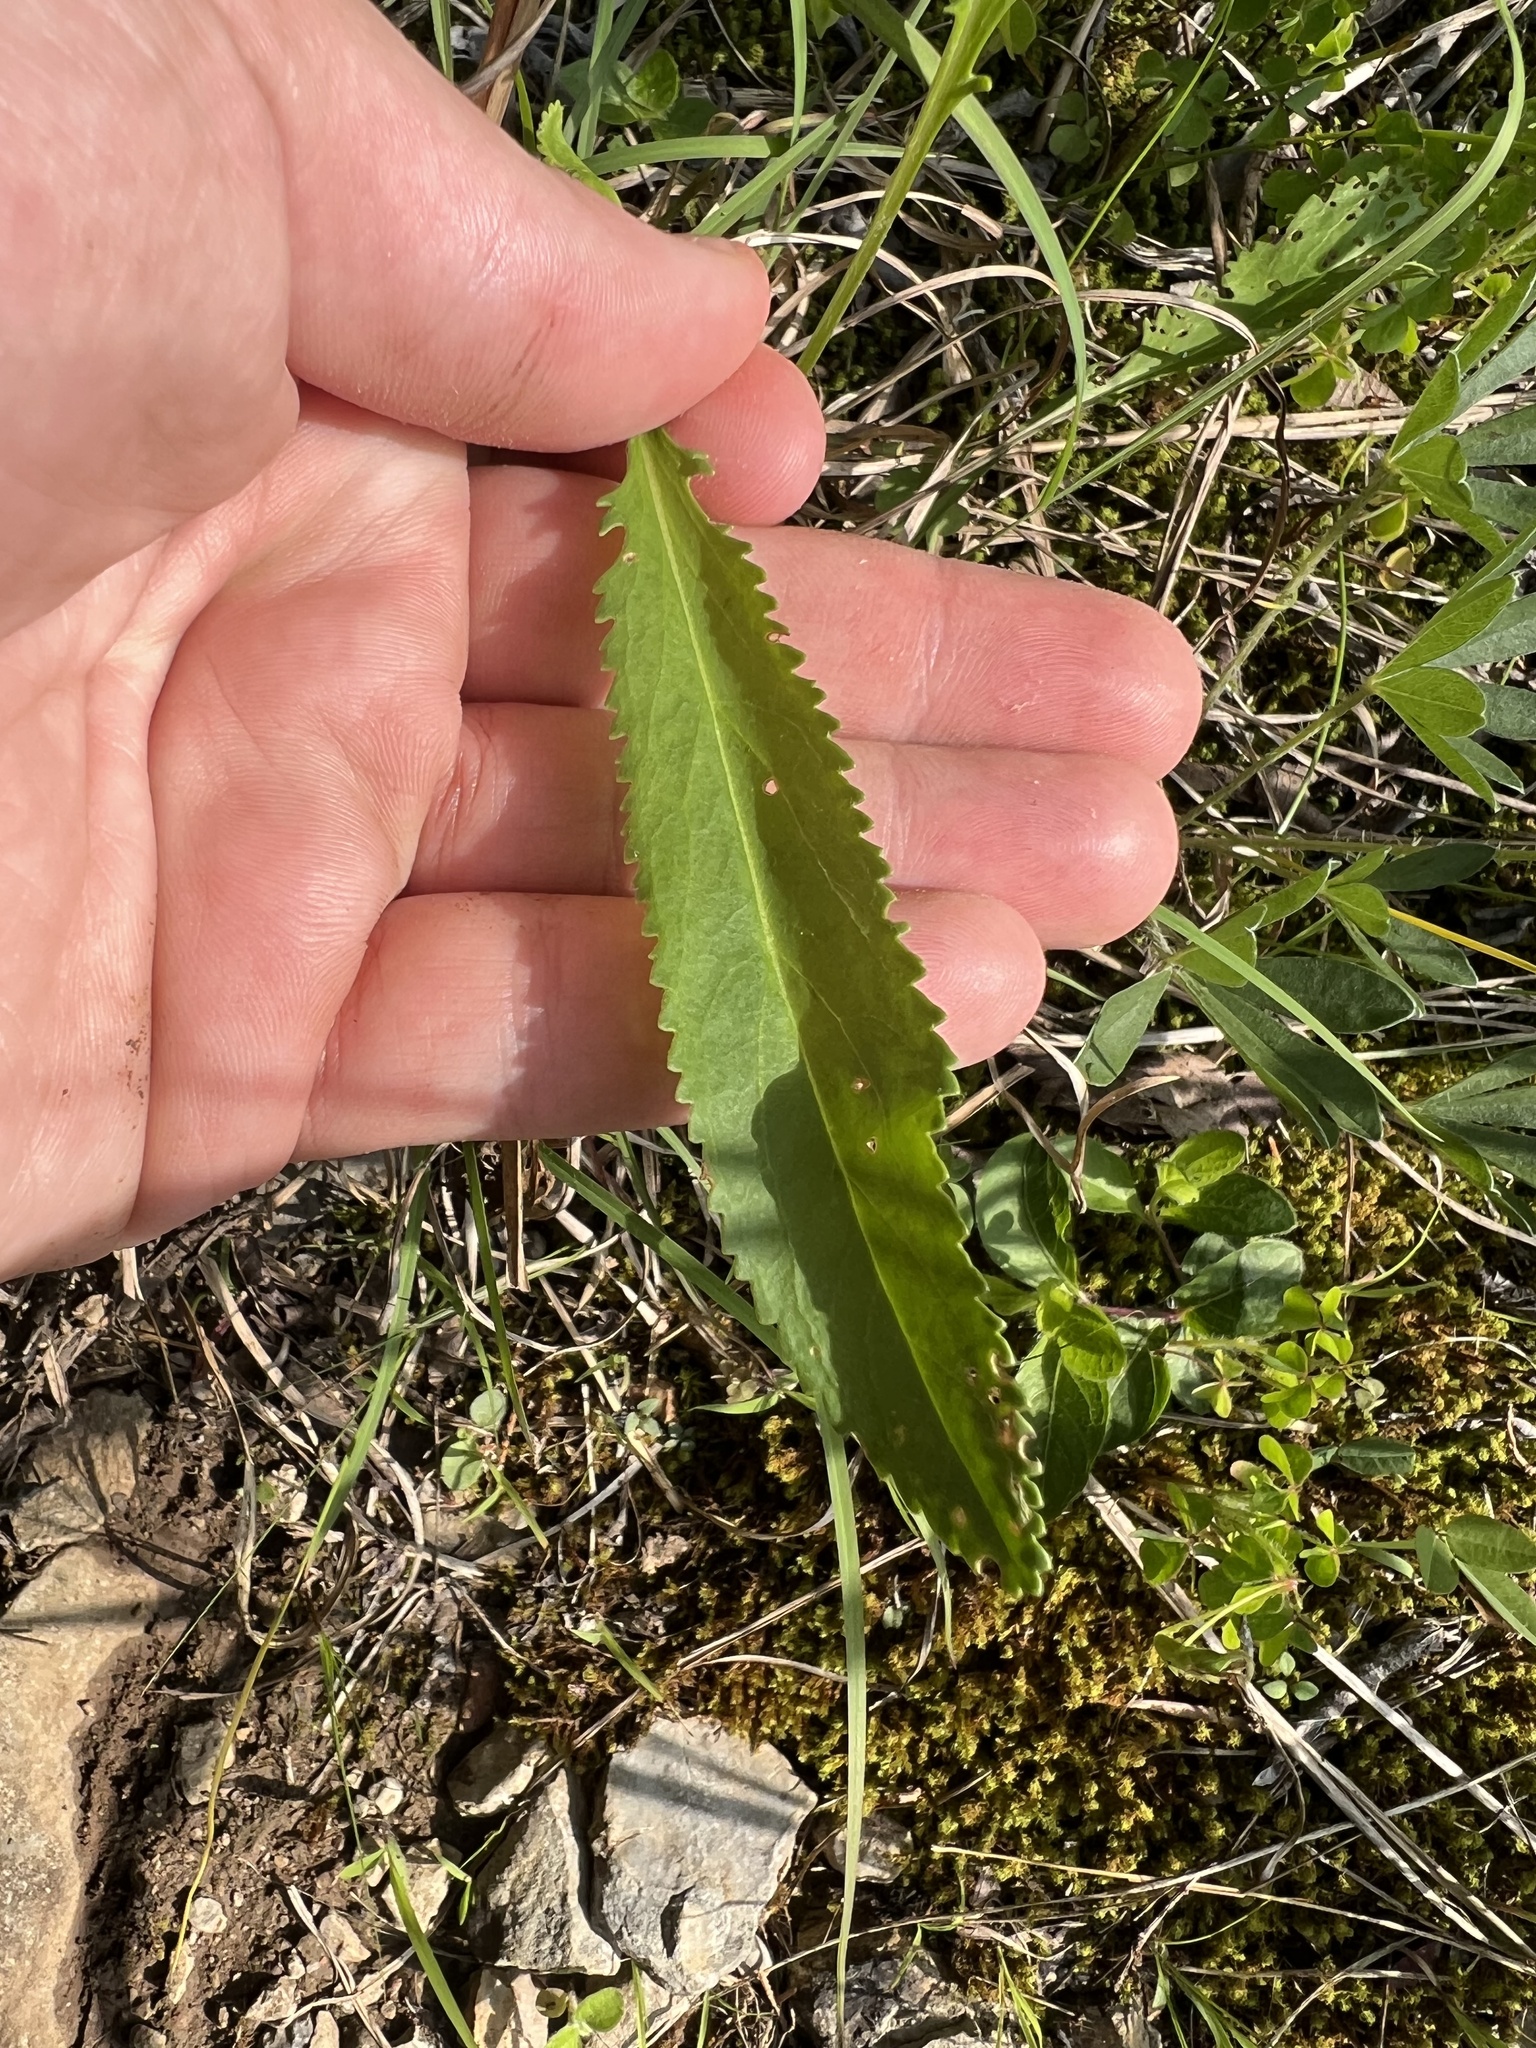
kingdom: Plantae
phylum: Tracheophyta
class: Magnoliopsida
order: Asterales
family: Asteraceae
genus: Packera
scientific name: Packera anonyma
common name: Small ragwort
